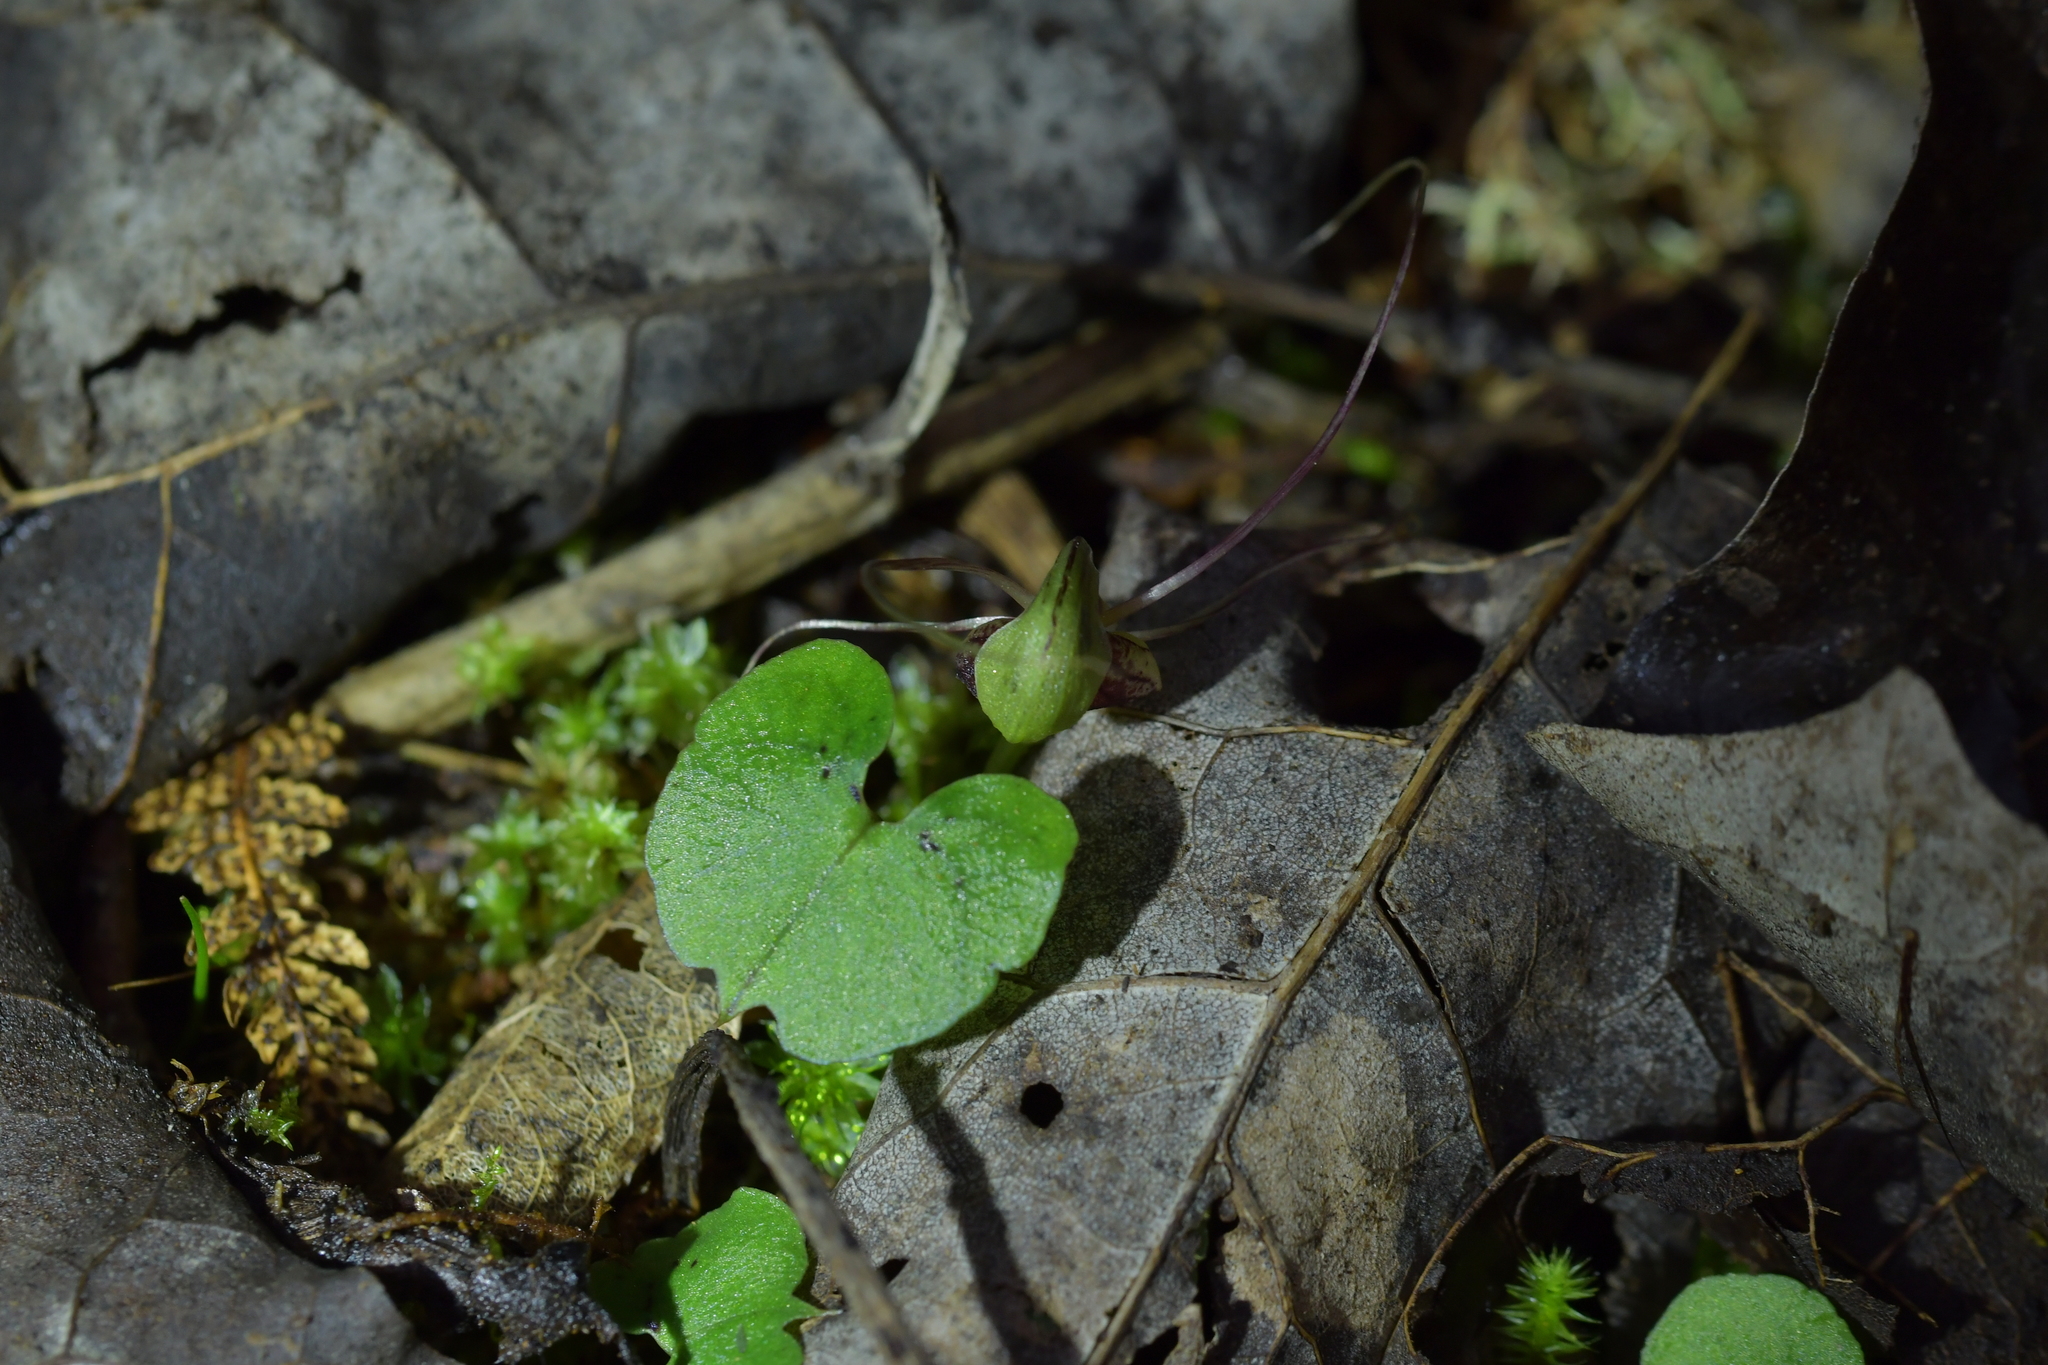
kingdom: Plantae
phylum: Tracheophyta
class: Liliopsida
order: Asparagales
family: Orchidaceae
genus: Corybas
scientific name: Corybas vitreus
